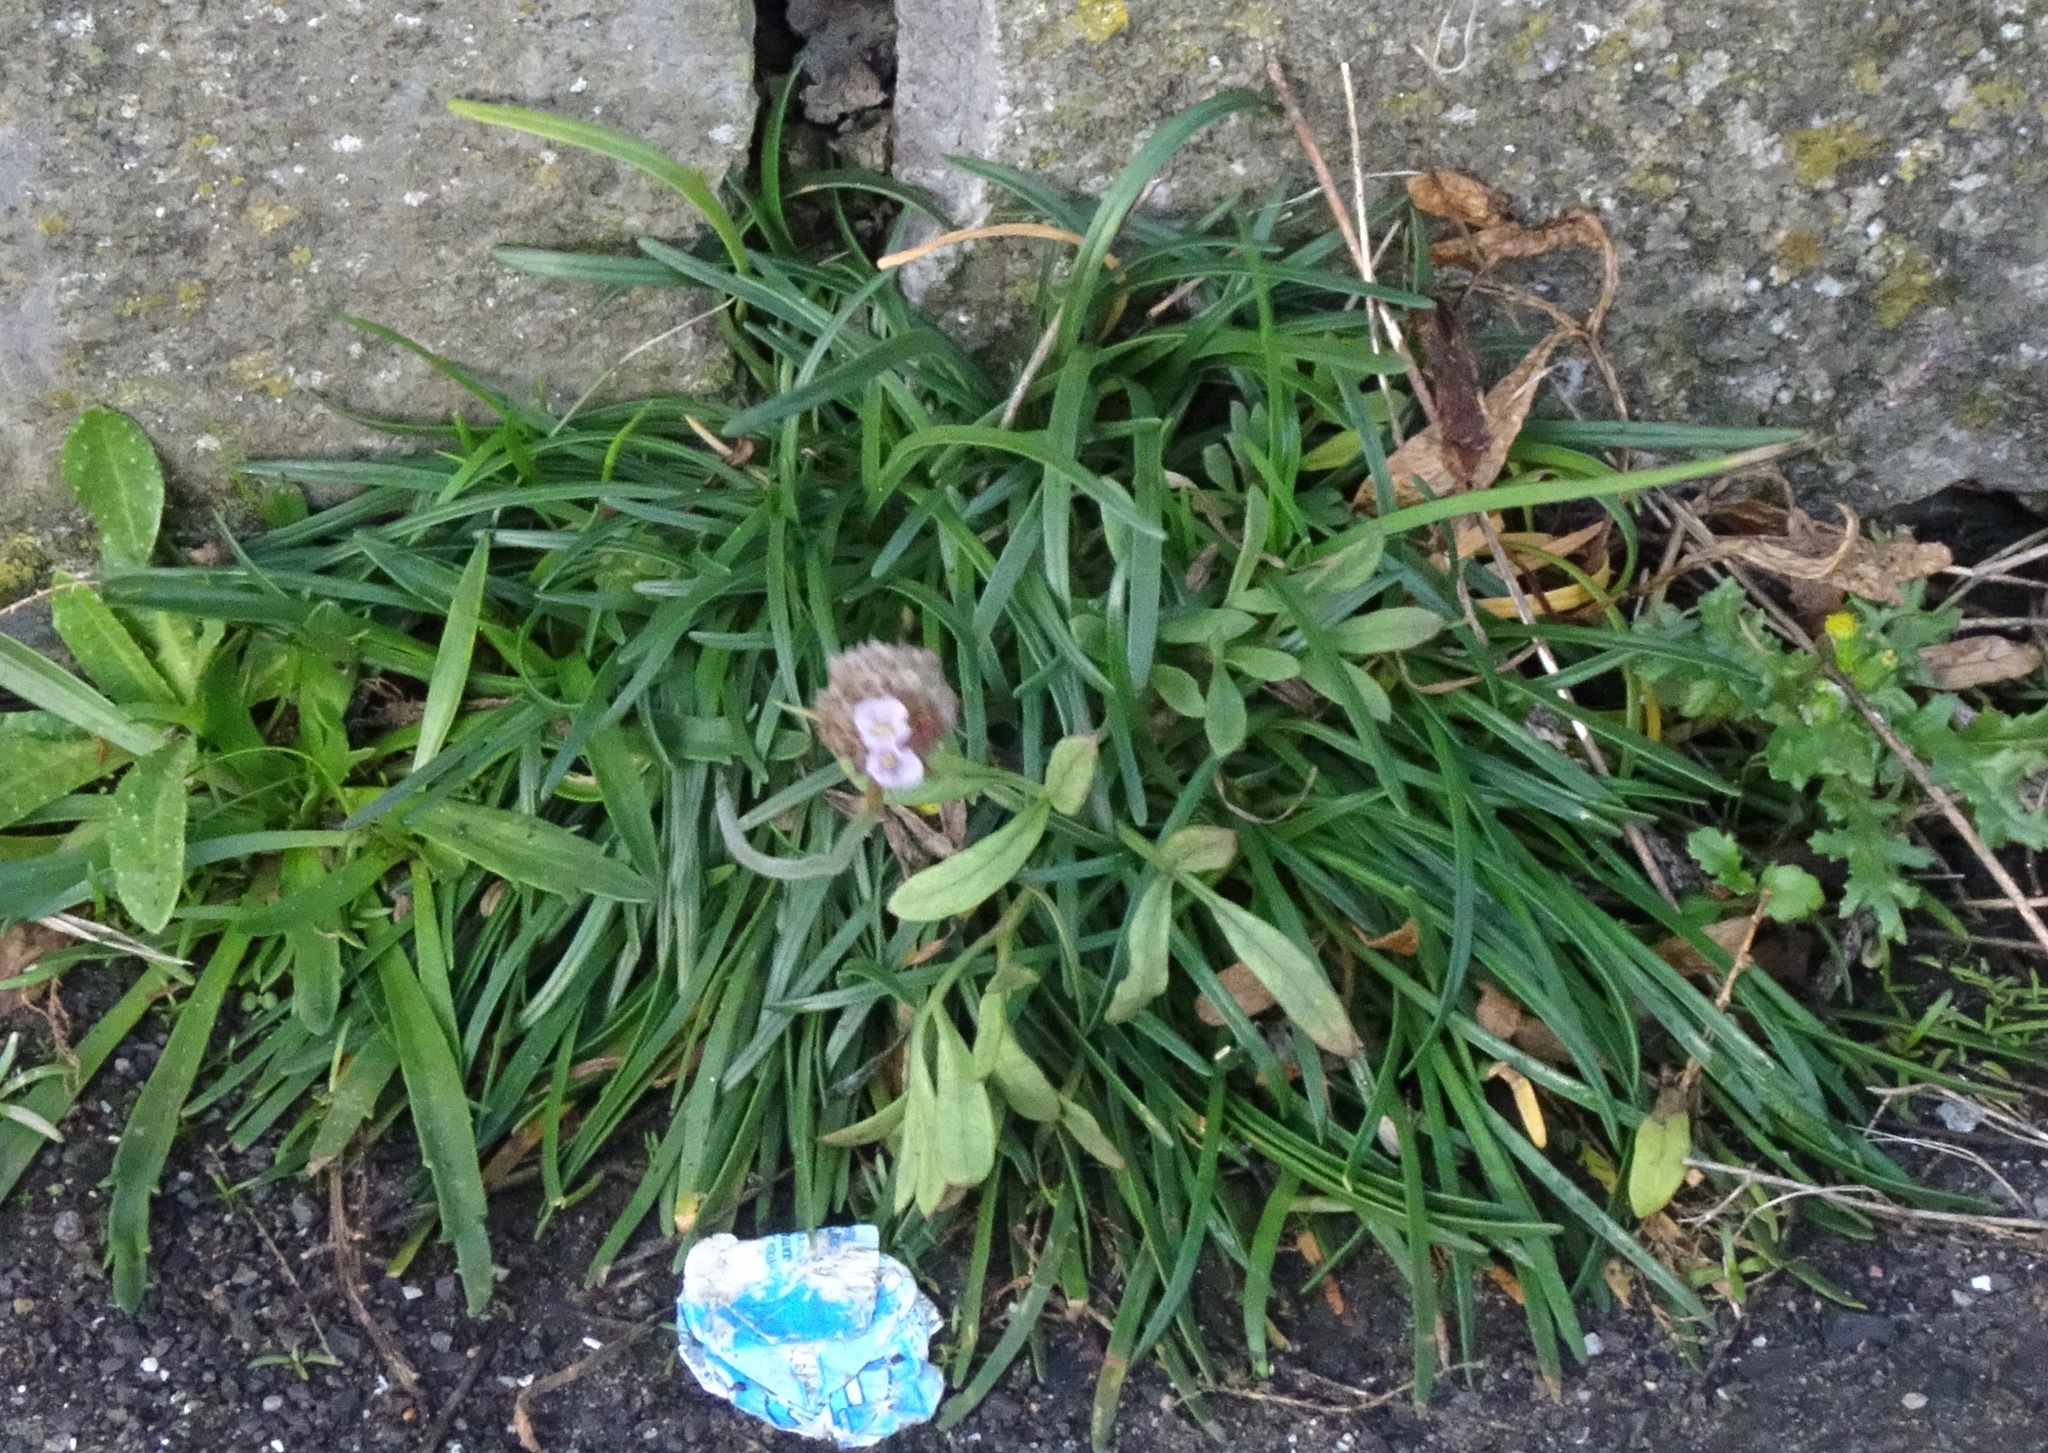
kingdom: Plantae
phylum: Tracheophyta
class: Magnoliopsida
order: Caryophyllales
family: Plumbaginaceae
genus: Armeria
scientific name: Armeria maritima
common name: Thrift
